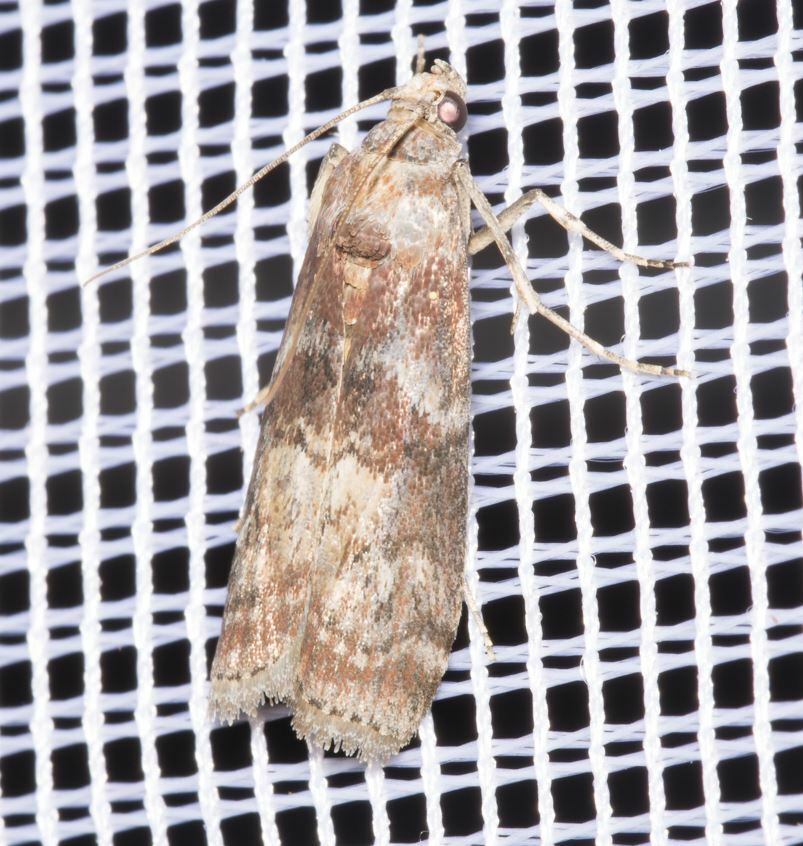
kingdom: Animalia
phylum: Arthropoda
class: Insecta
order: Lepidoptera
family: Pyralidae
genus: Phycita
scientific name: Phycita roborella
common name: Dotted oak knot-horn
